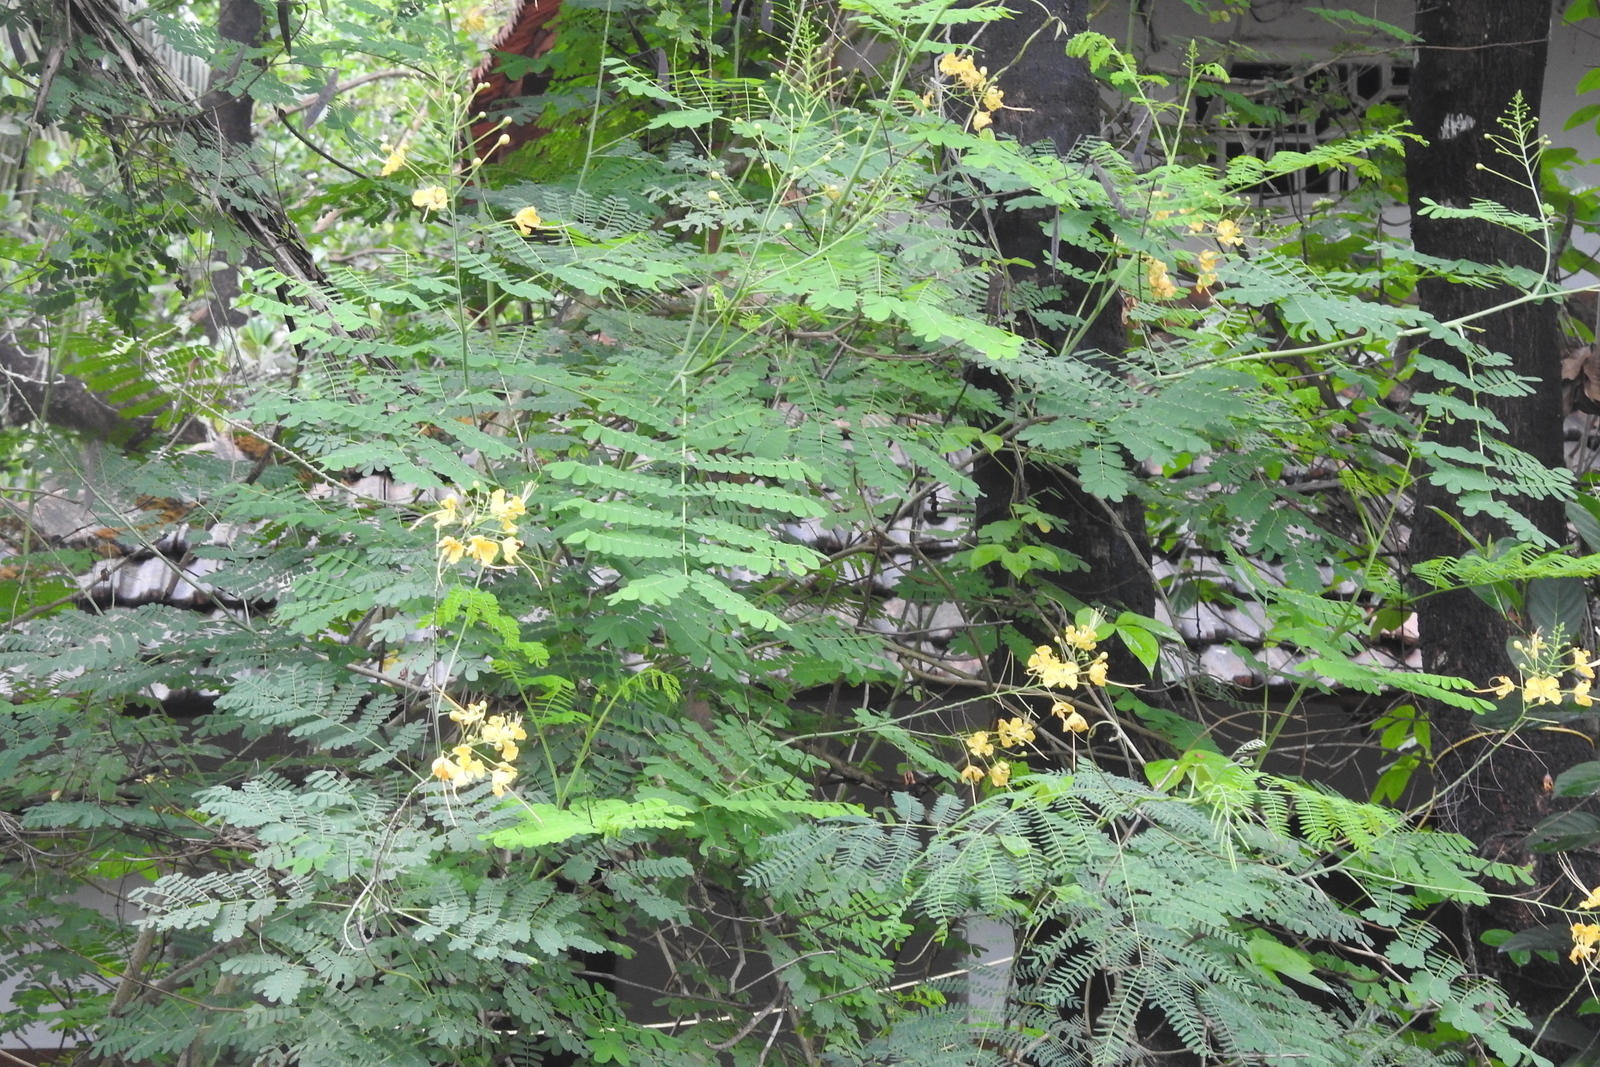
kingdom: Plantae
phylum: Tracheophyta
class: Magnoliopsida
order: Fabales
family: Fabaceae
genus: Caesalpinia
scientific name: Caesalpinia pulcherrima
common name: Pride-of-barbados
